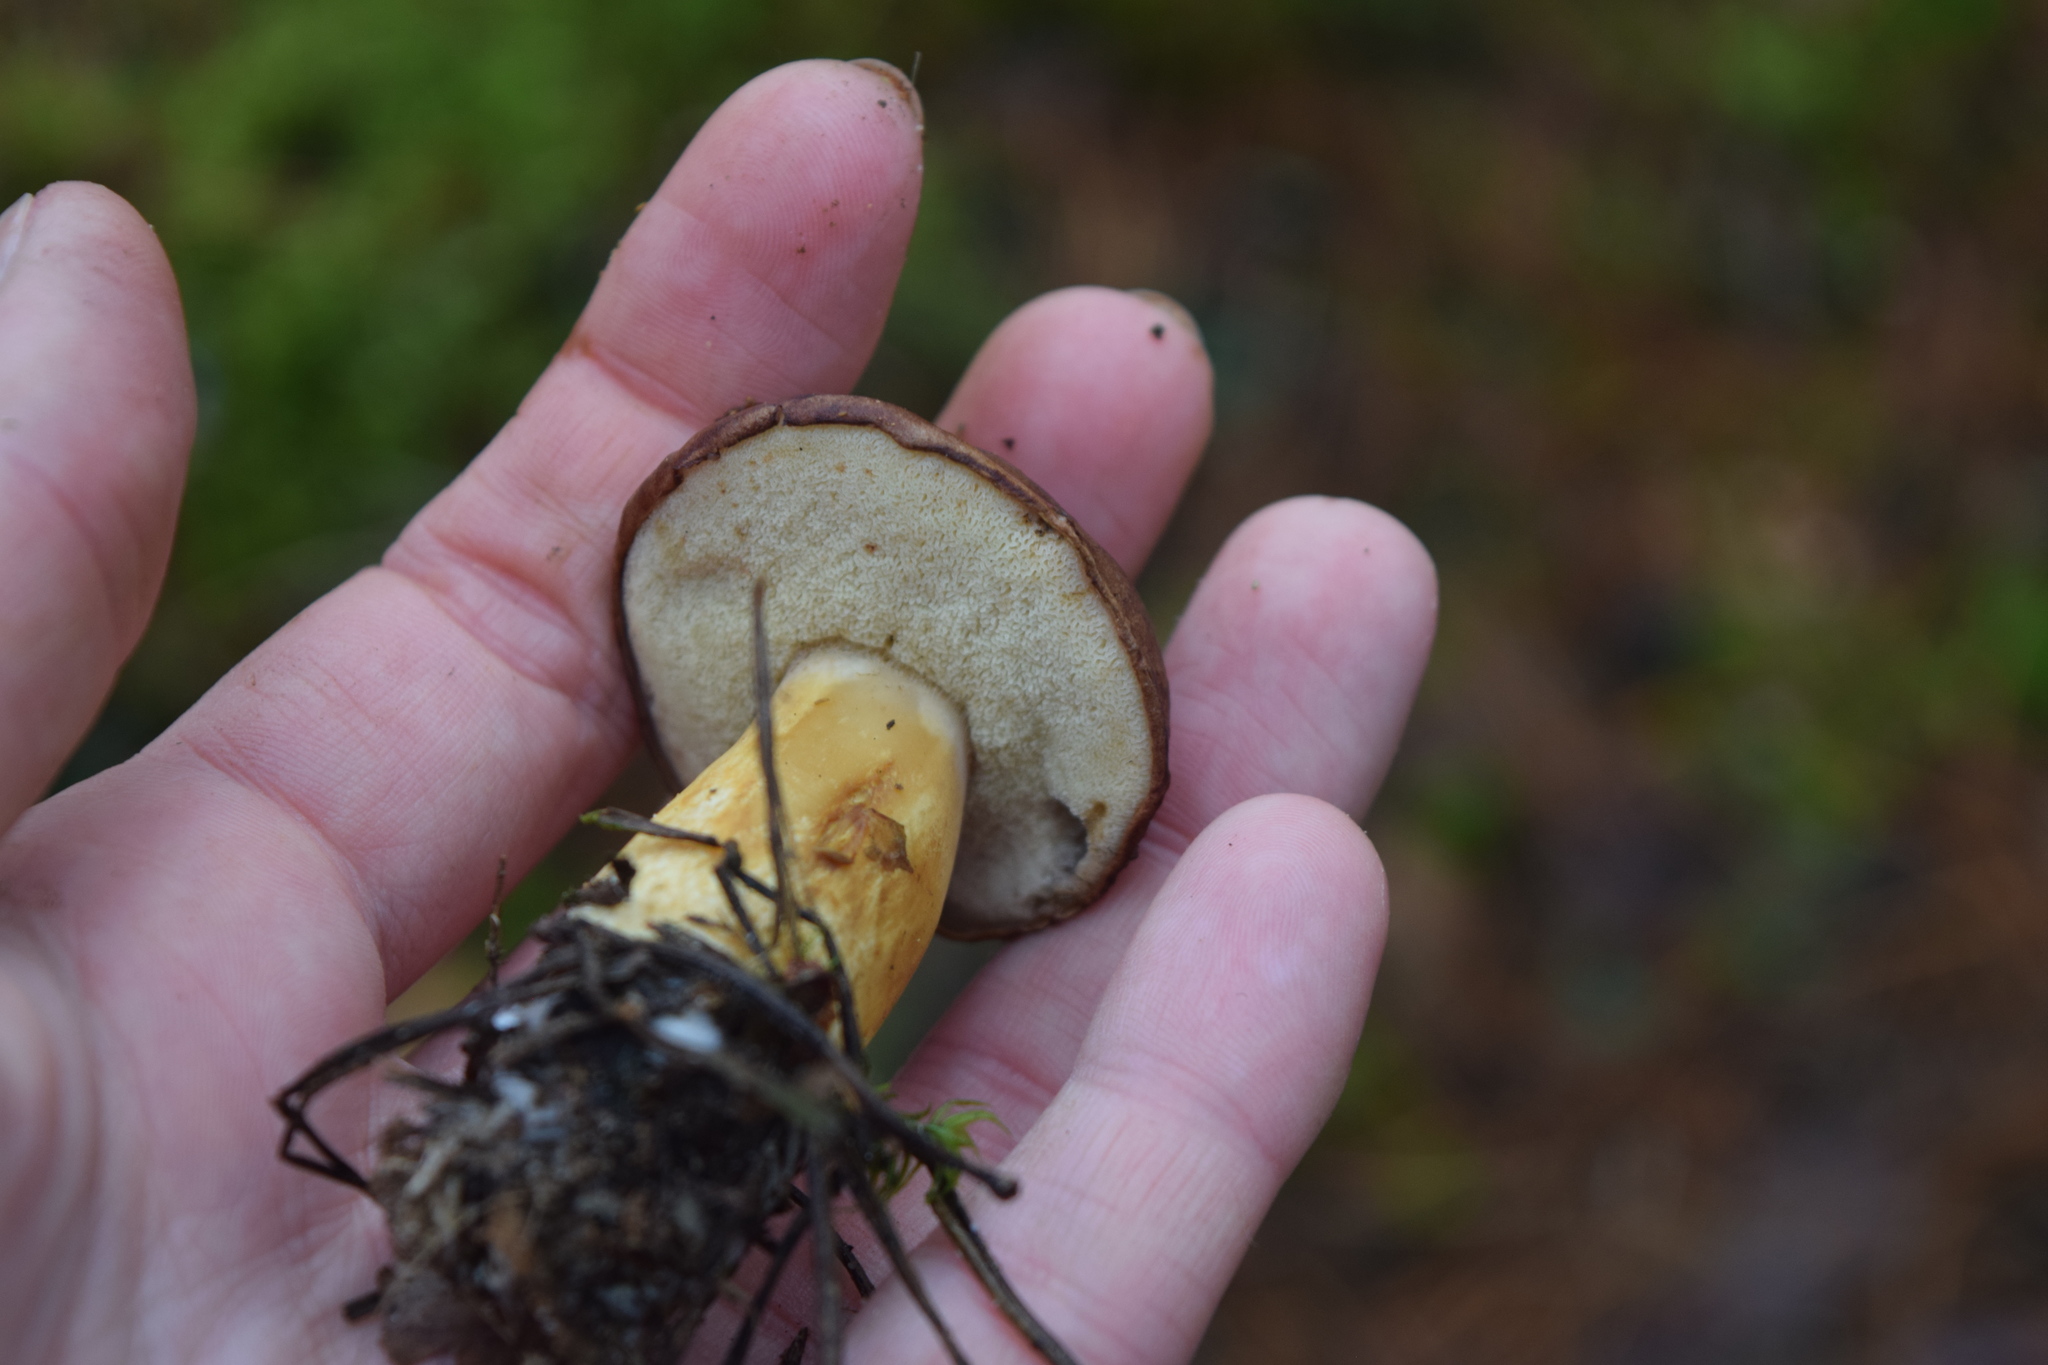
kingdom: Fungi
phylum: Basidiomycota
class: Agaricomycetes
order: Boletales
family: Boletaceae
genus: Imleria
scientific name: Imleria badia
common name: Bay bolete
